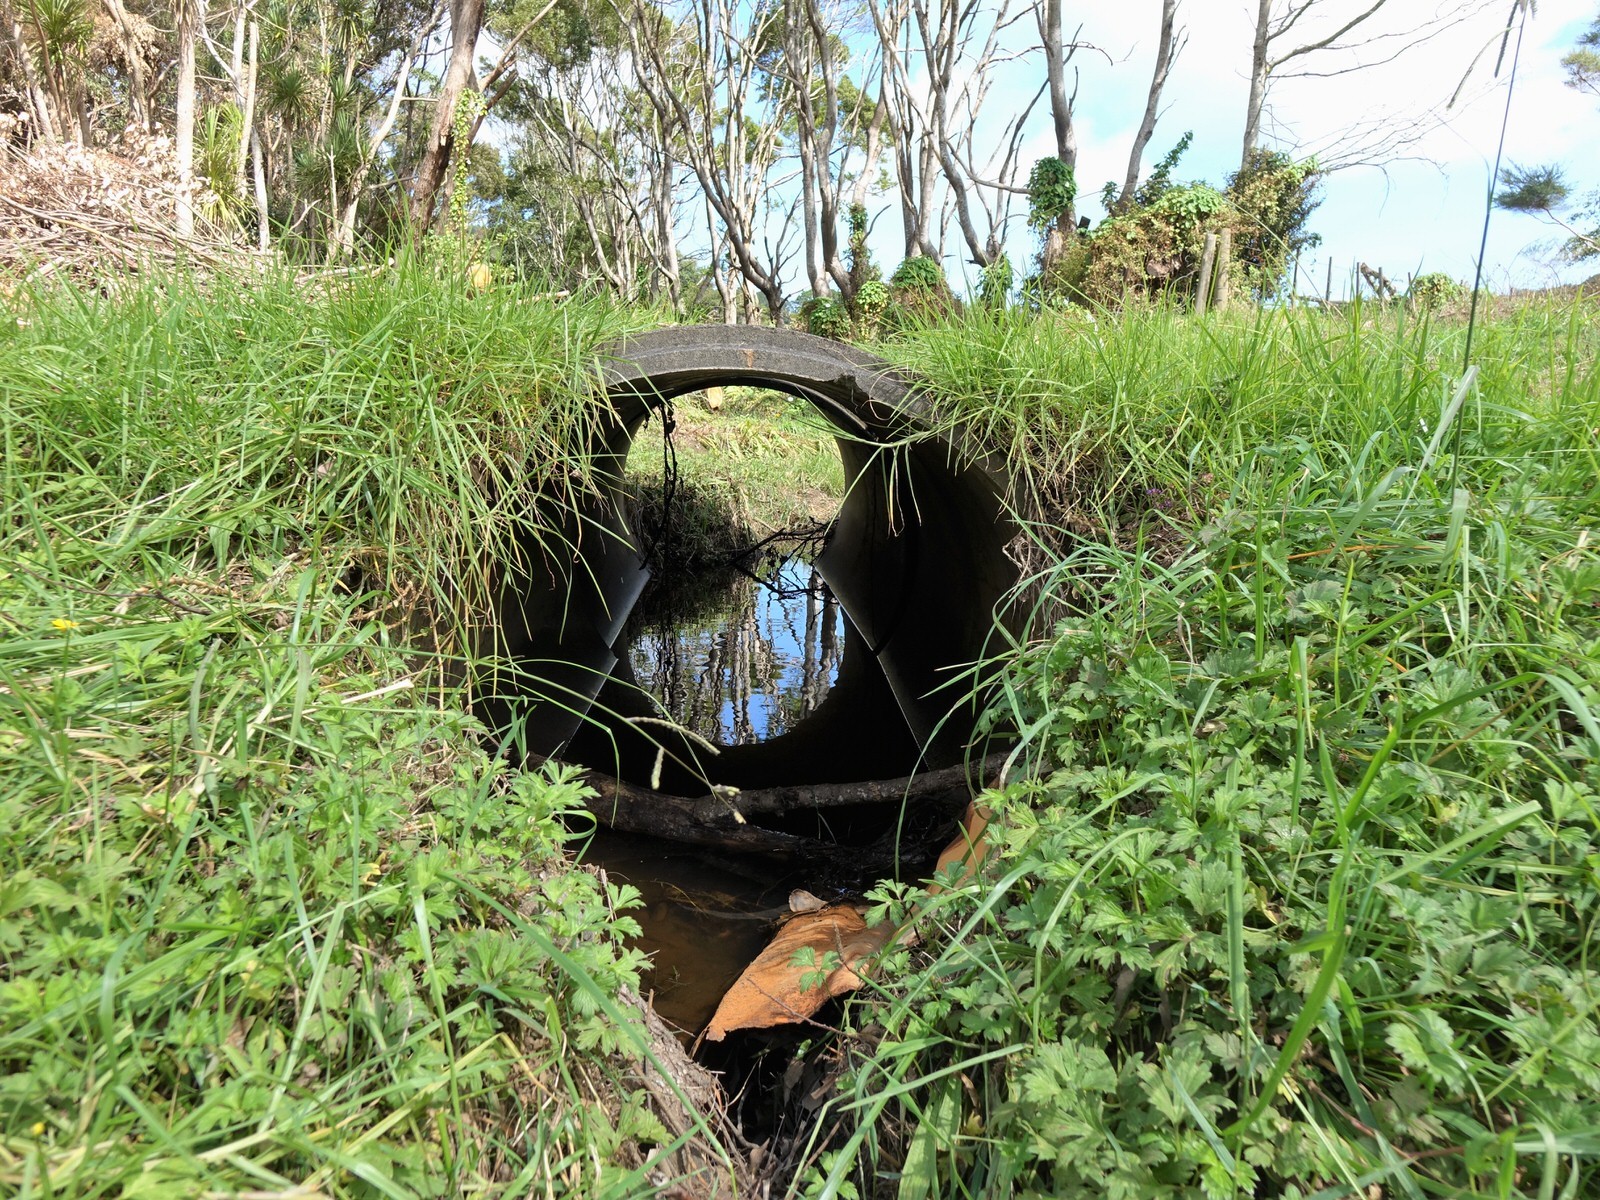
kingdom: Animalia
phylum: Chordata
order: Cyprinodontiformes
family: Poeciliidae
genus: Gambusia
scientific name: Gambusia affinis
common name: Mosquitofish
